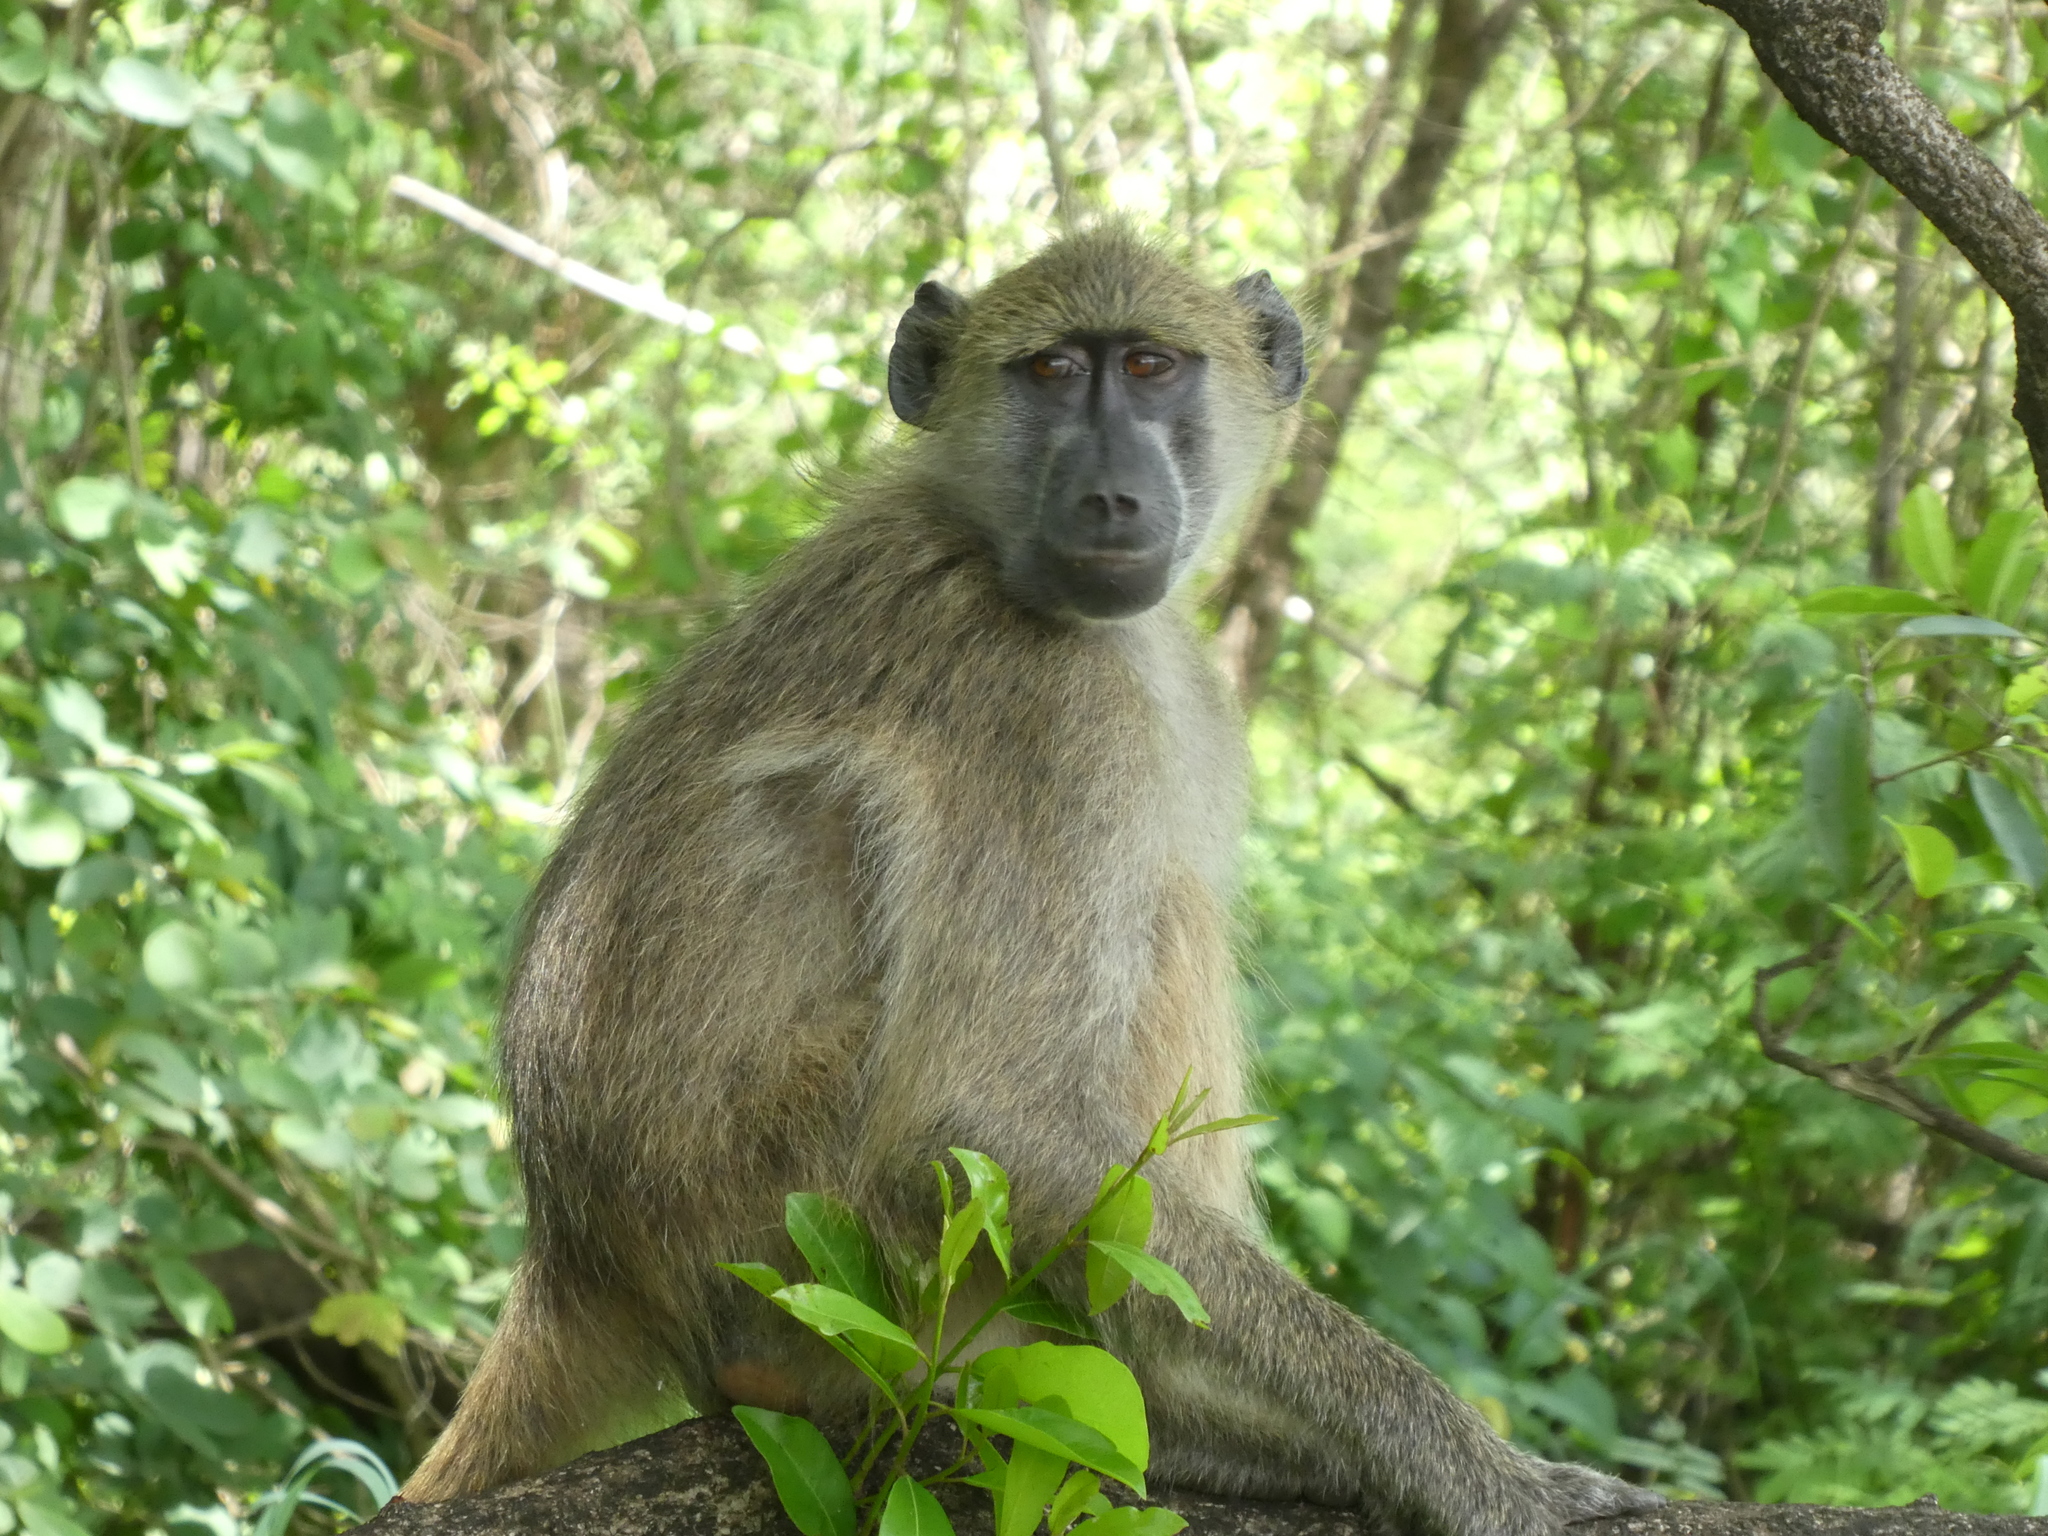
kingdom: Animalia
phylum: Chordata
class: Mammalia
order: Primates
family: Cercopithecidae
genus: Papio
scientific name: Papio ursinus
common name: Chacma baboon
